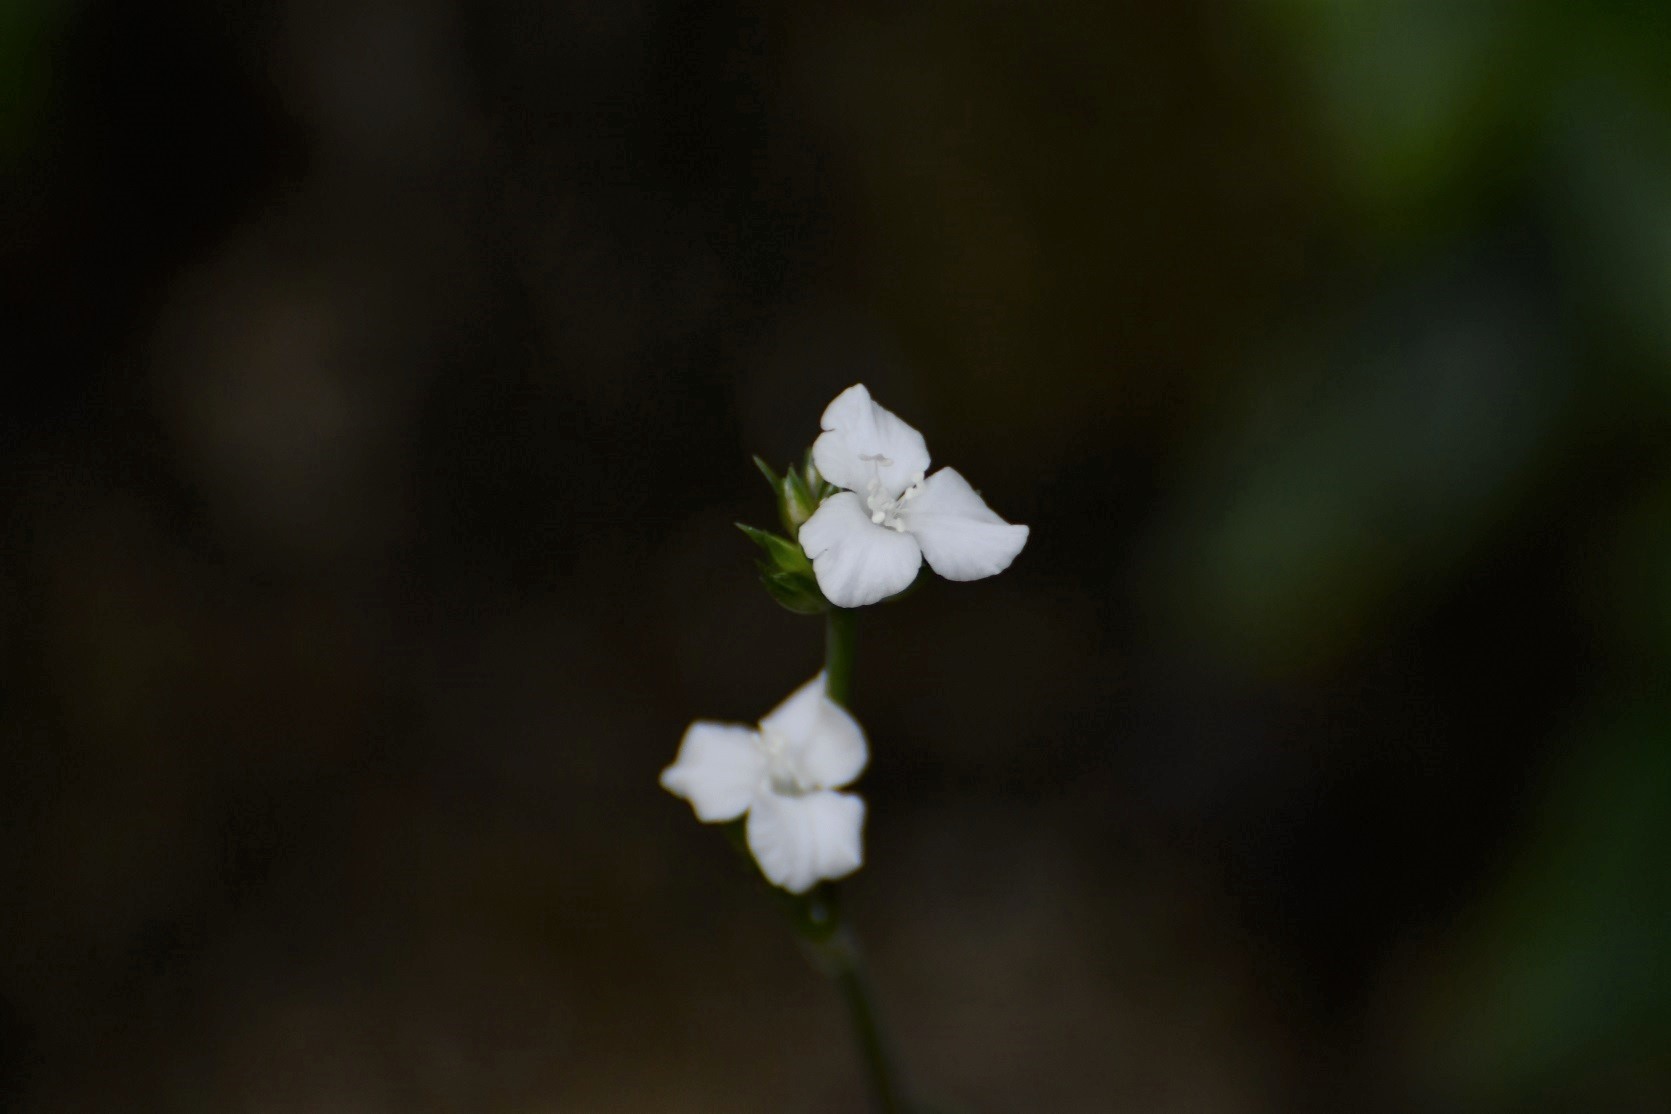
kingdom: Plantae
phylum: Tracheophyta
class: Liliopsida
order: Commelinales
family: Commelinaceae
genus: Callisia
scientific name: Callisia gentlei
